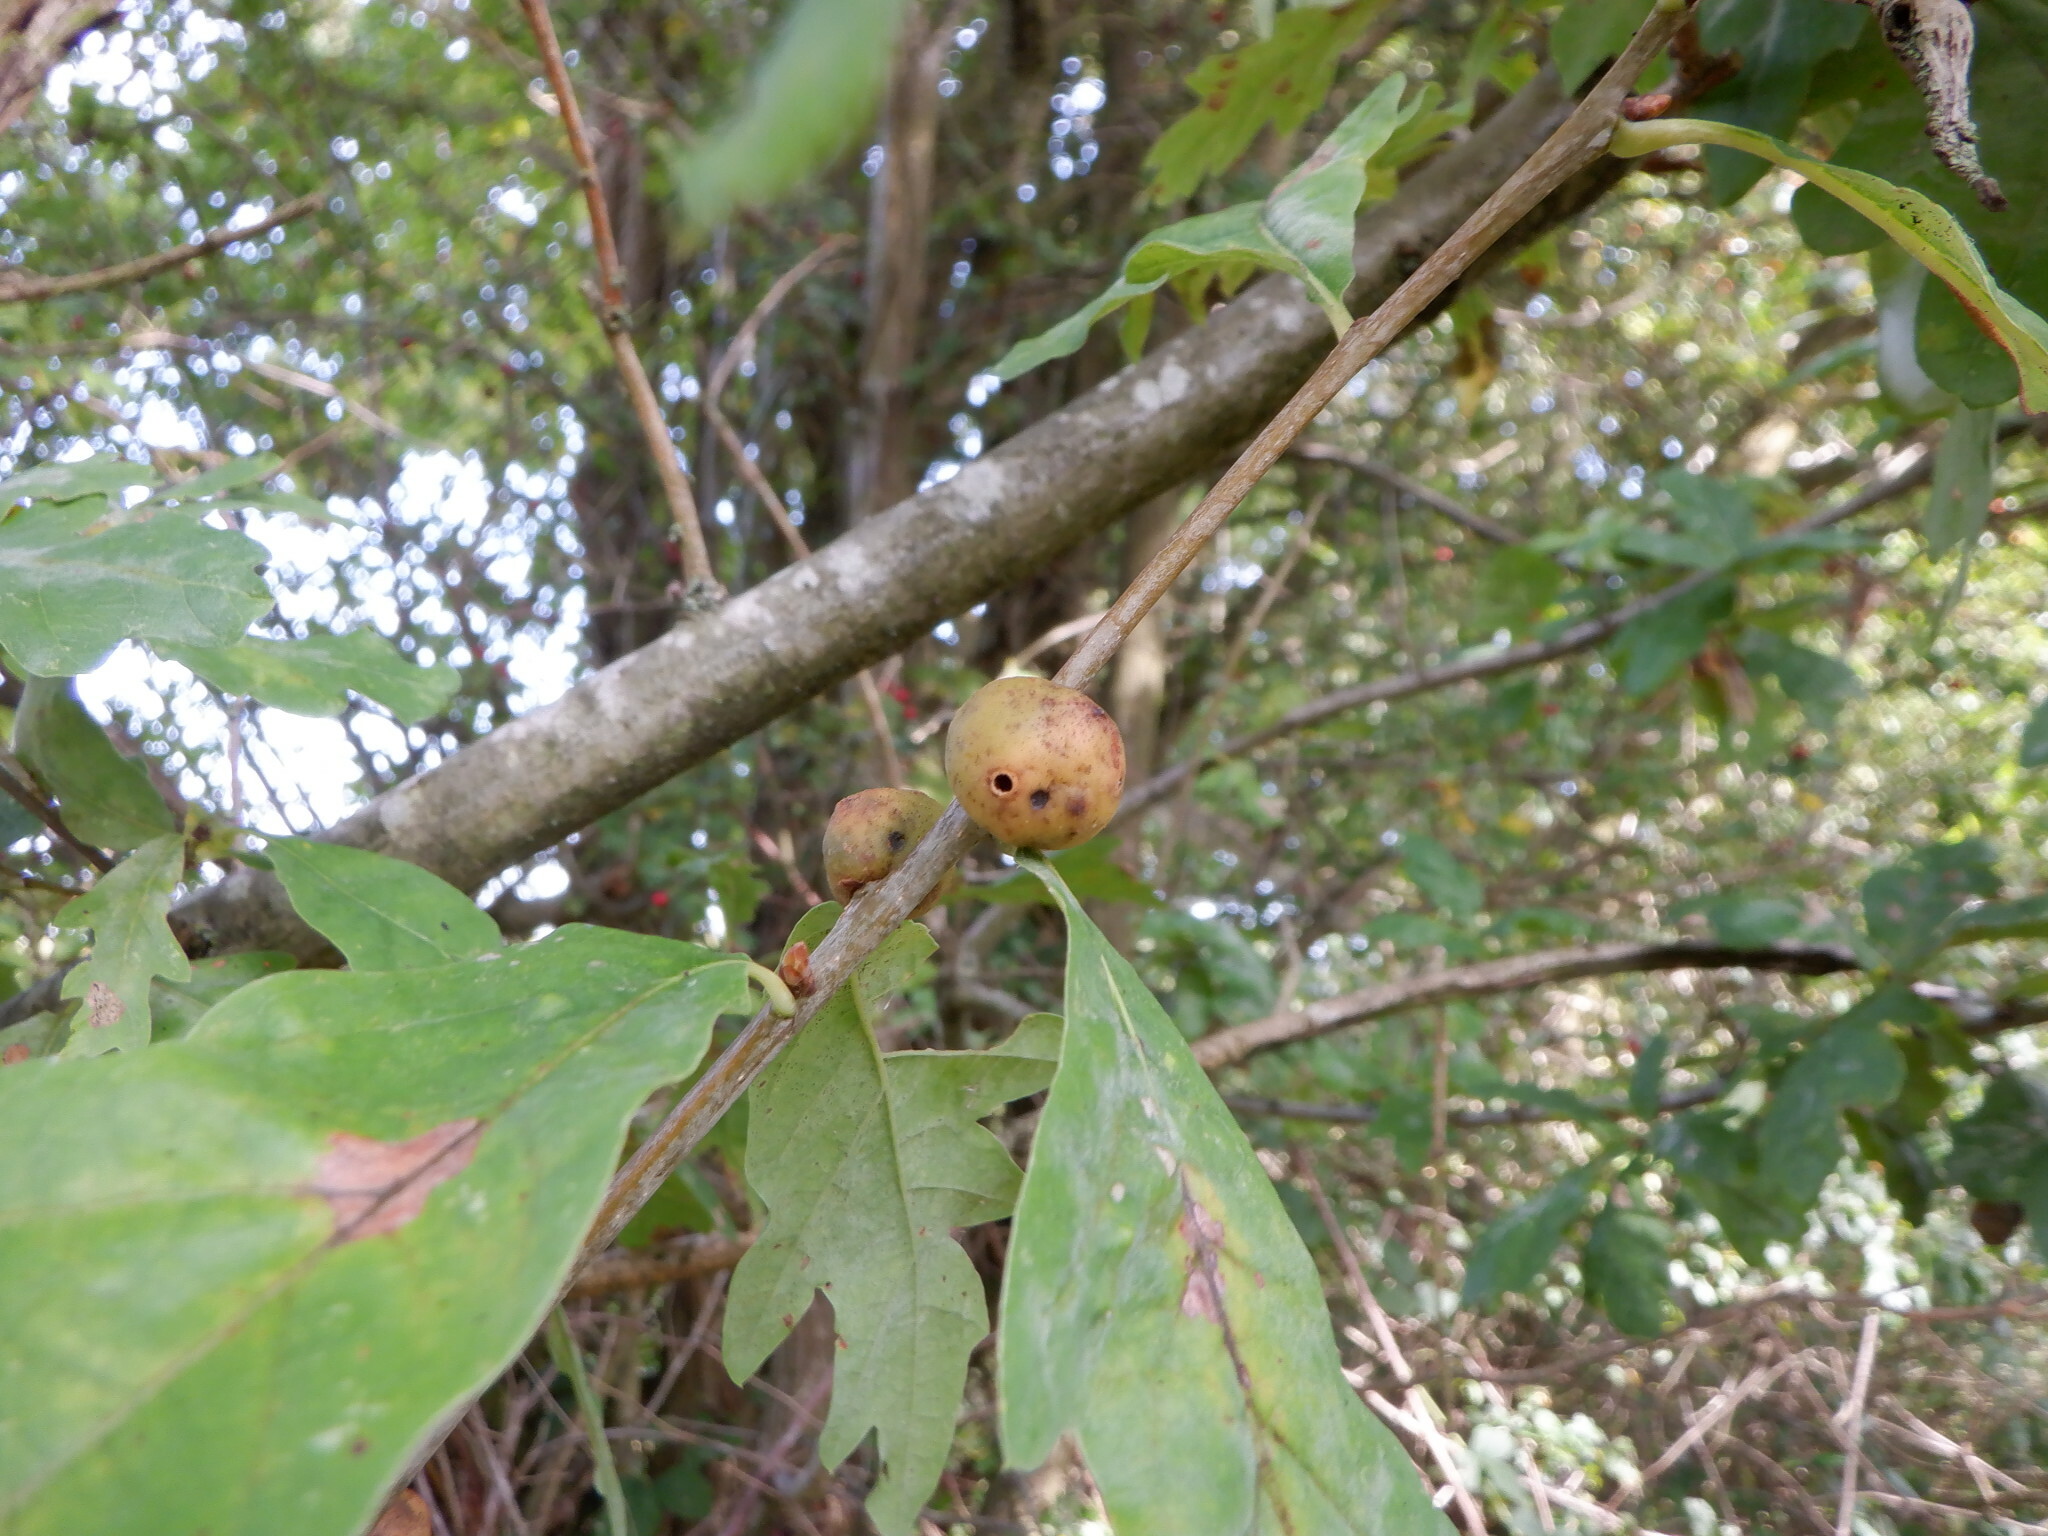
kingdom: Animalia
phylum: Arthropoda
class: Insecta
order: Hymenoptera
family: Cynipidae
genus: Andricus
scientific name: Andricus kollari
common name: Marble gall
